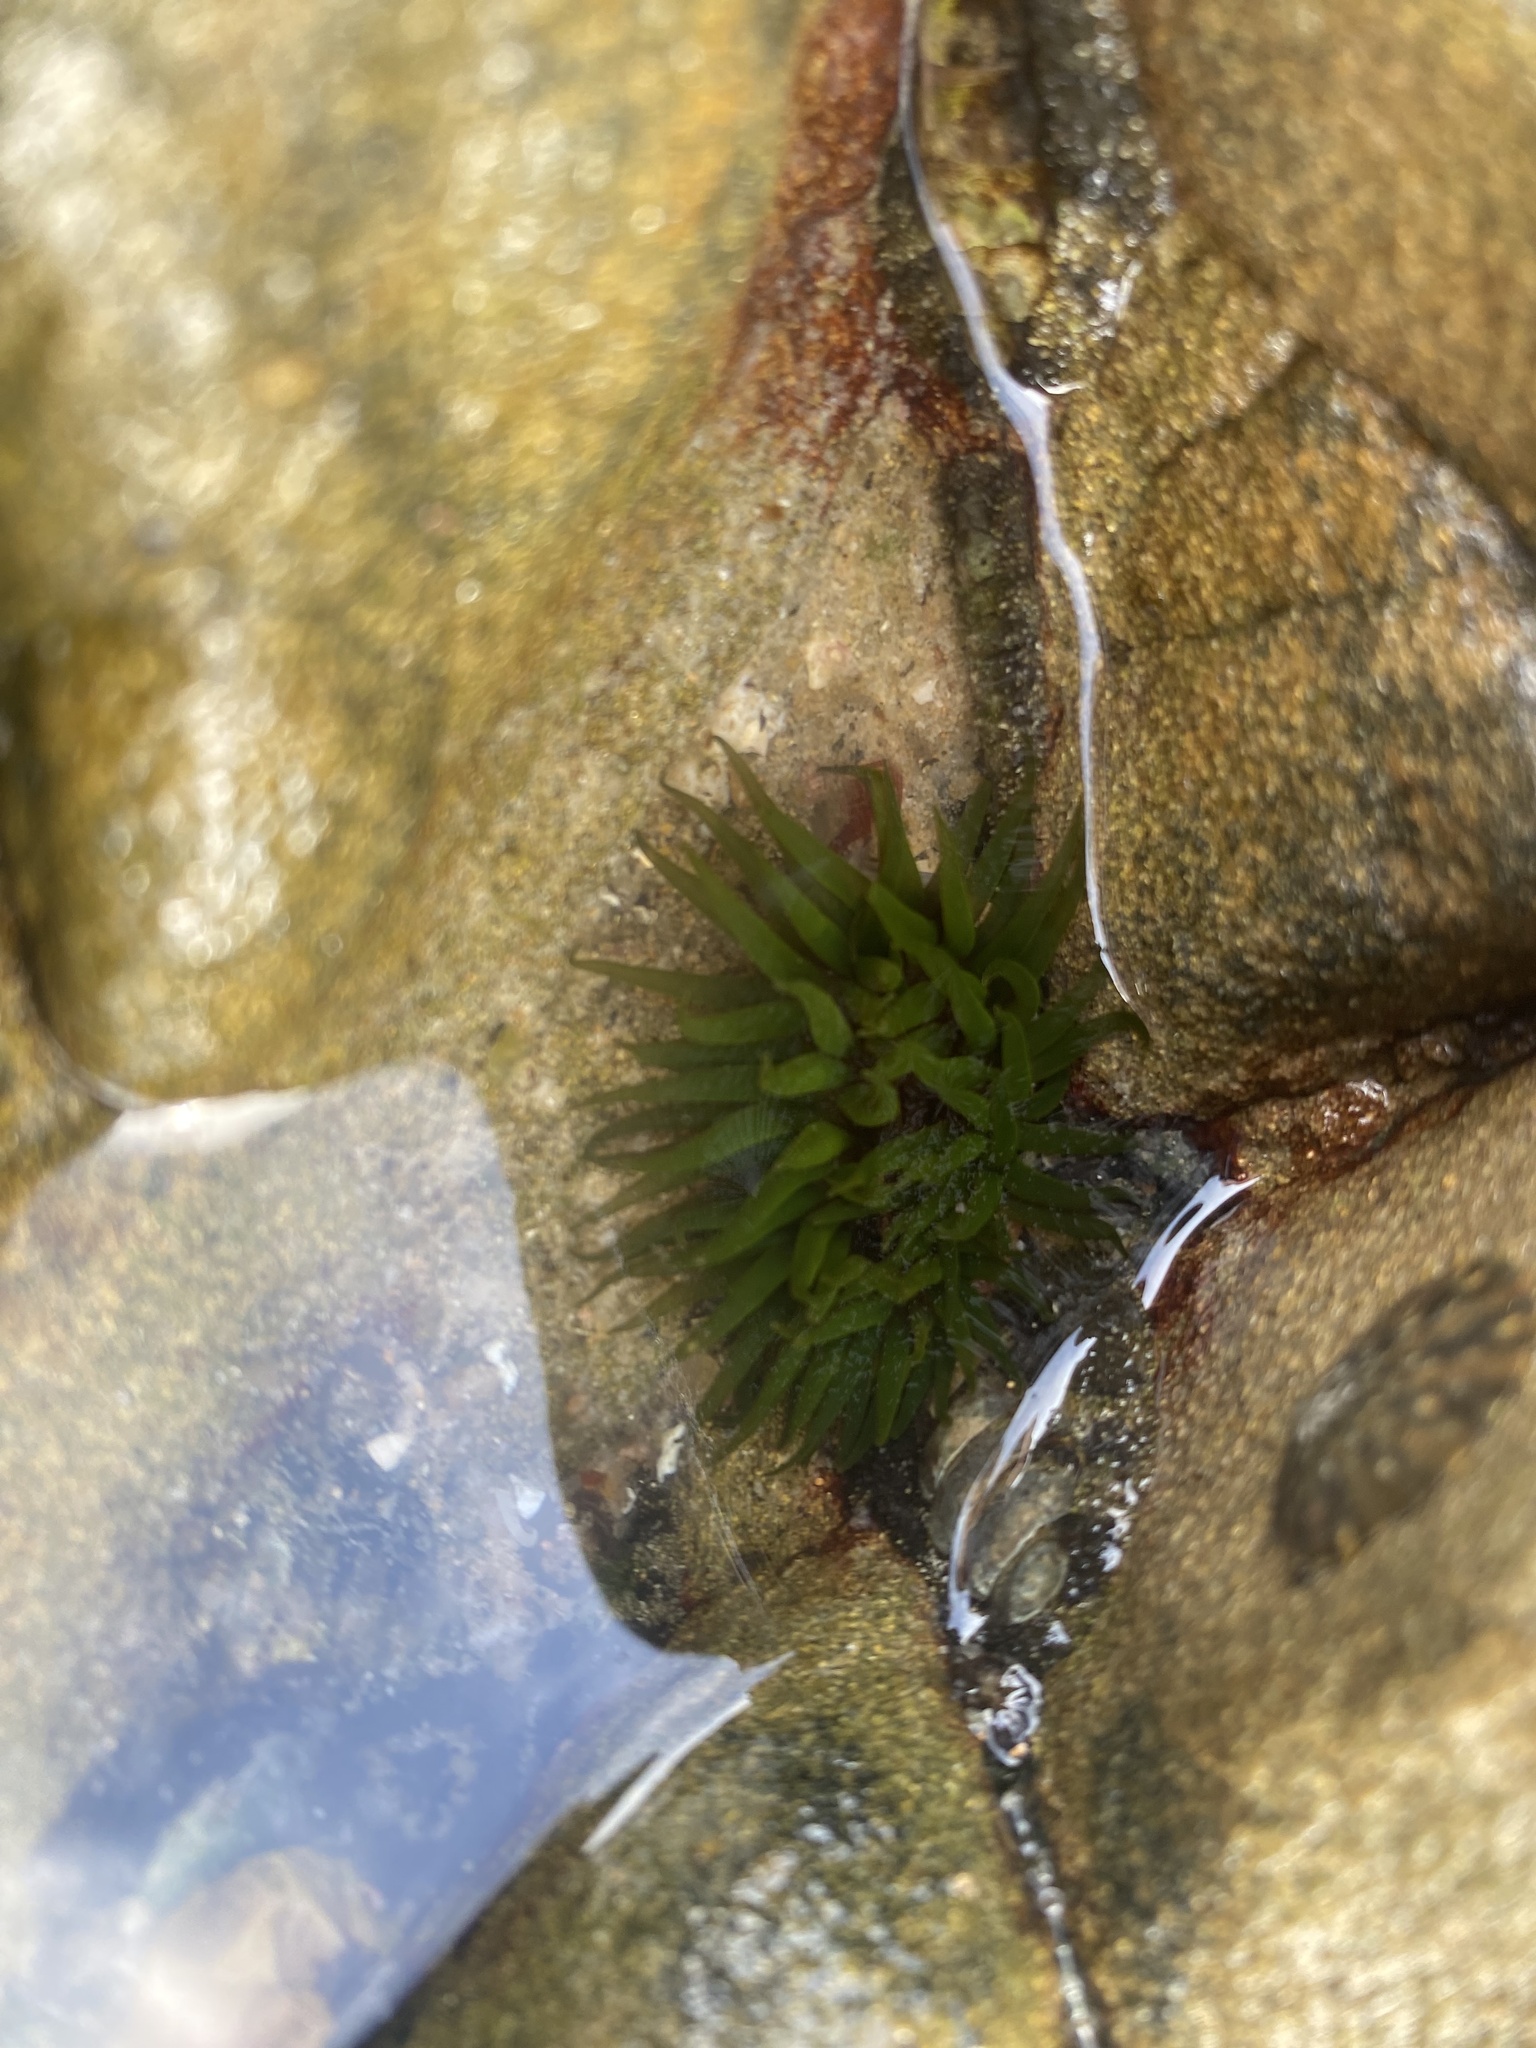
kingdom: Animalia
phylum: Cnidaria
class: Anthozoa
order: Actiniaria
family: Actiniidae
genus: Aulactinia
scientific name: Aulactinia veratra
